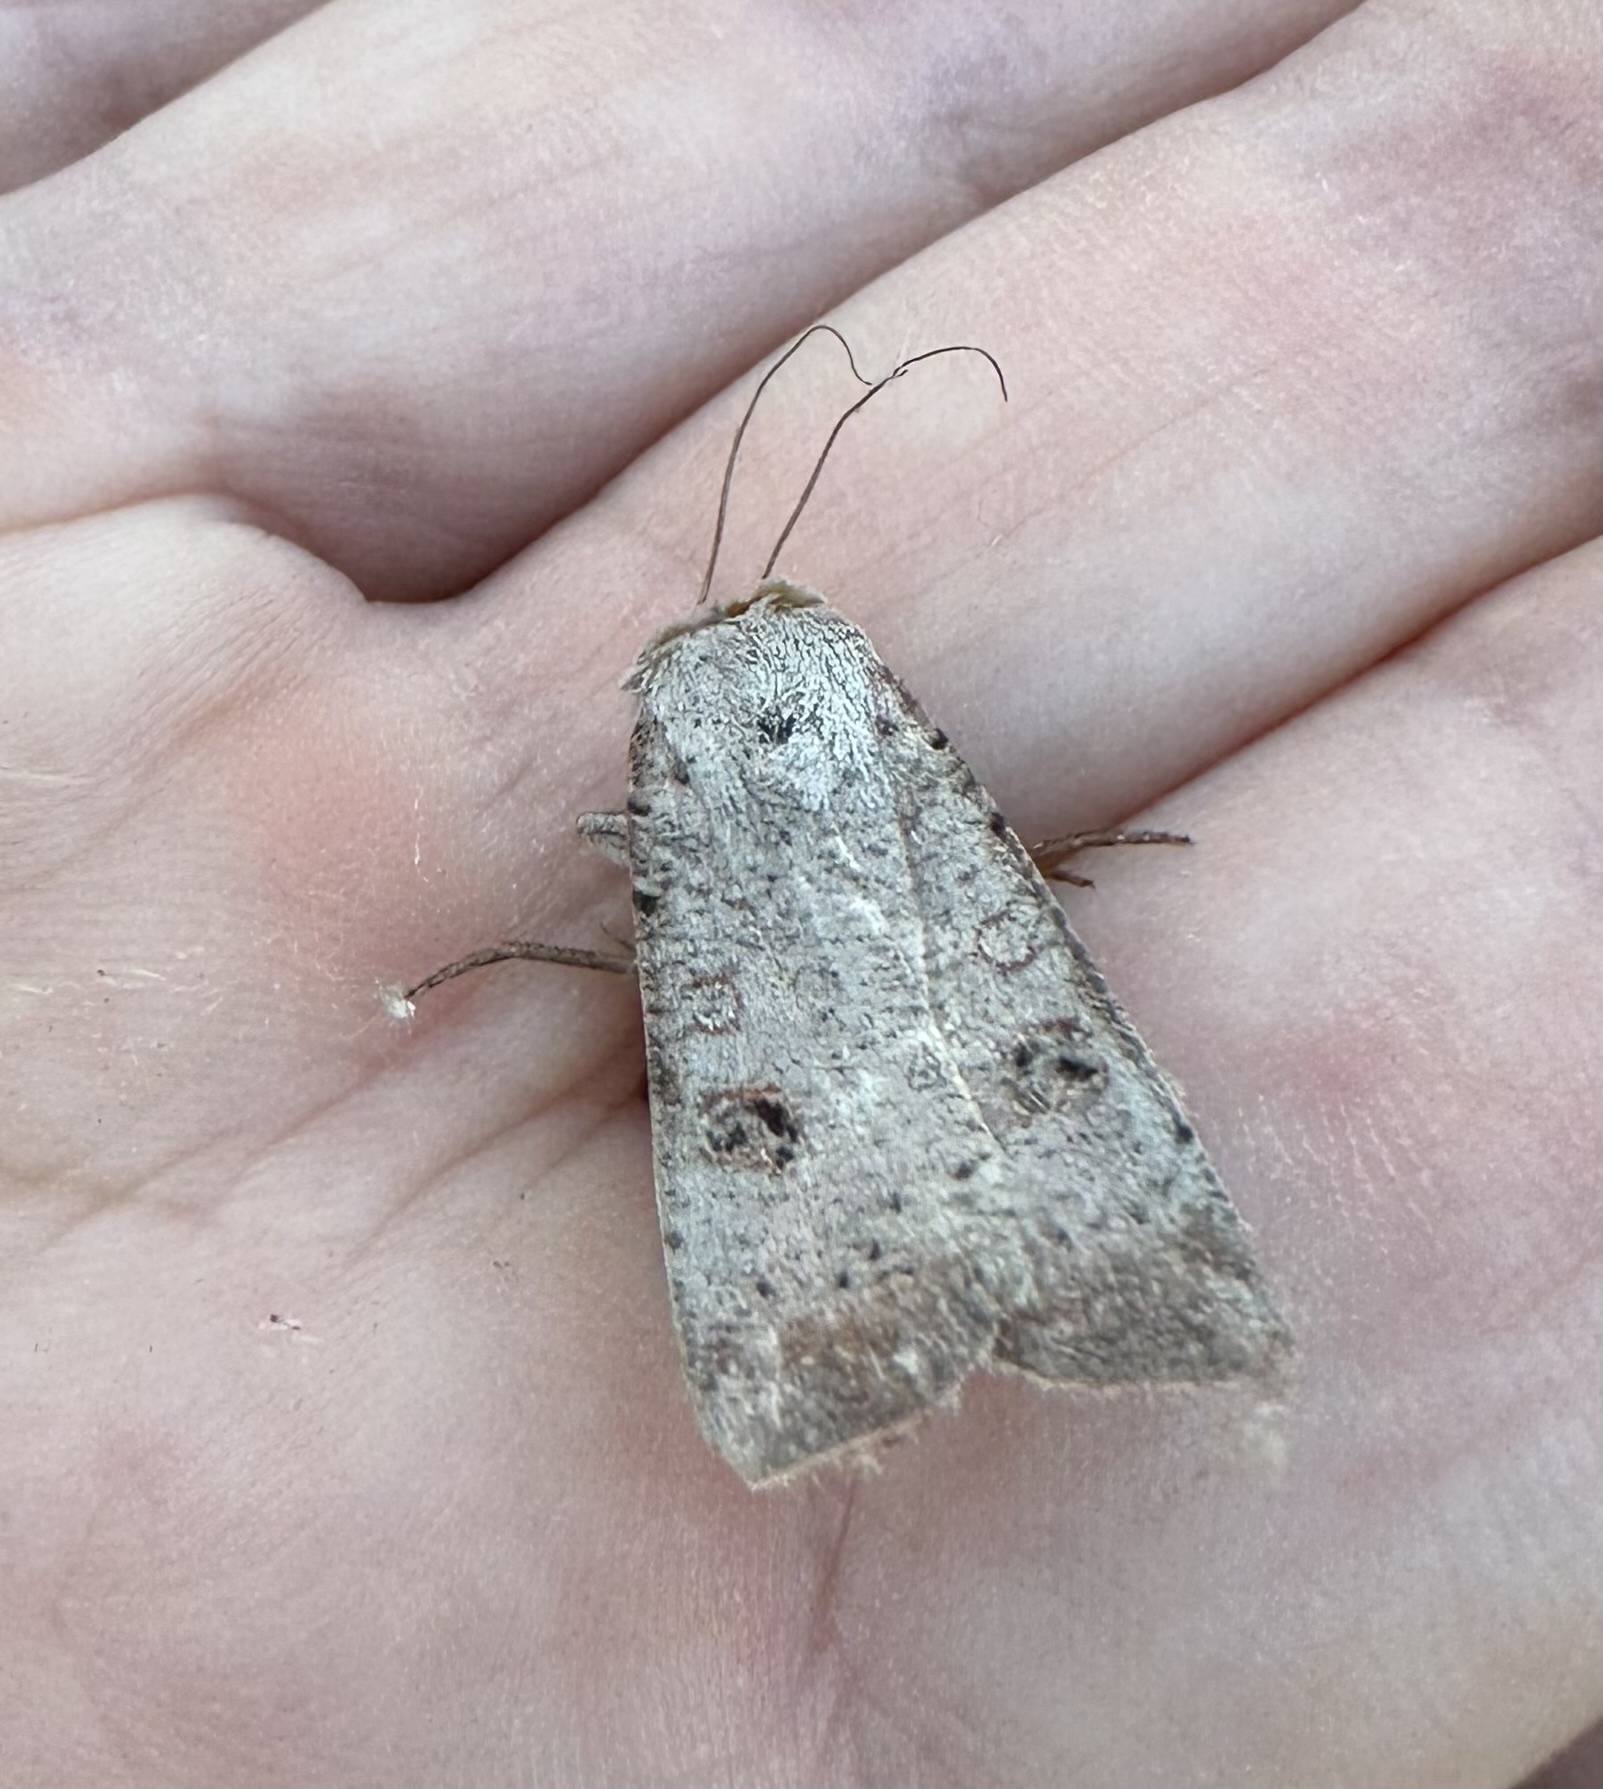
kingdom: Animalia
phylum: Arthropoda
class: Insecta
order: Lepidoptera
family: Noctuidae
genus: Anicla
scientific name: Anicla infecta
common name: Green cutworm
